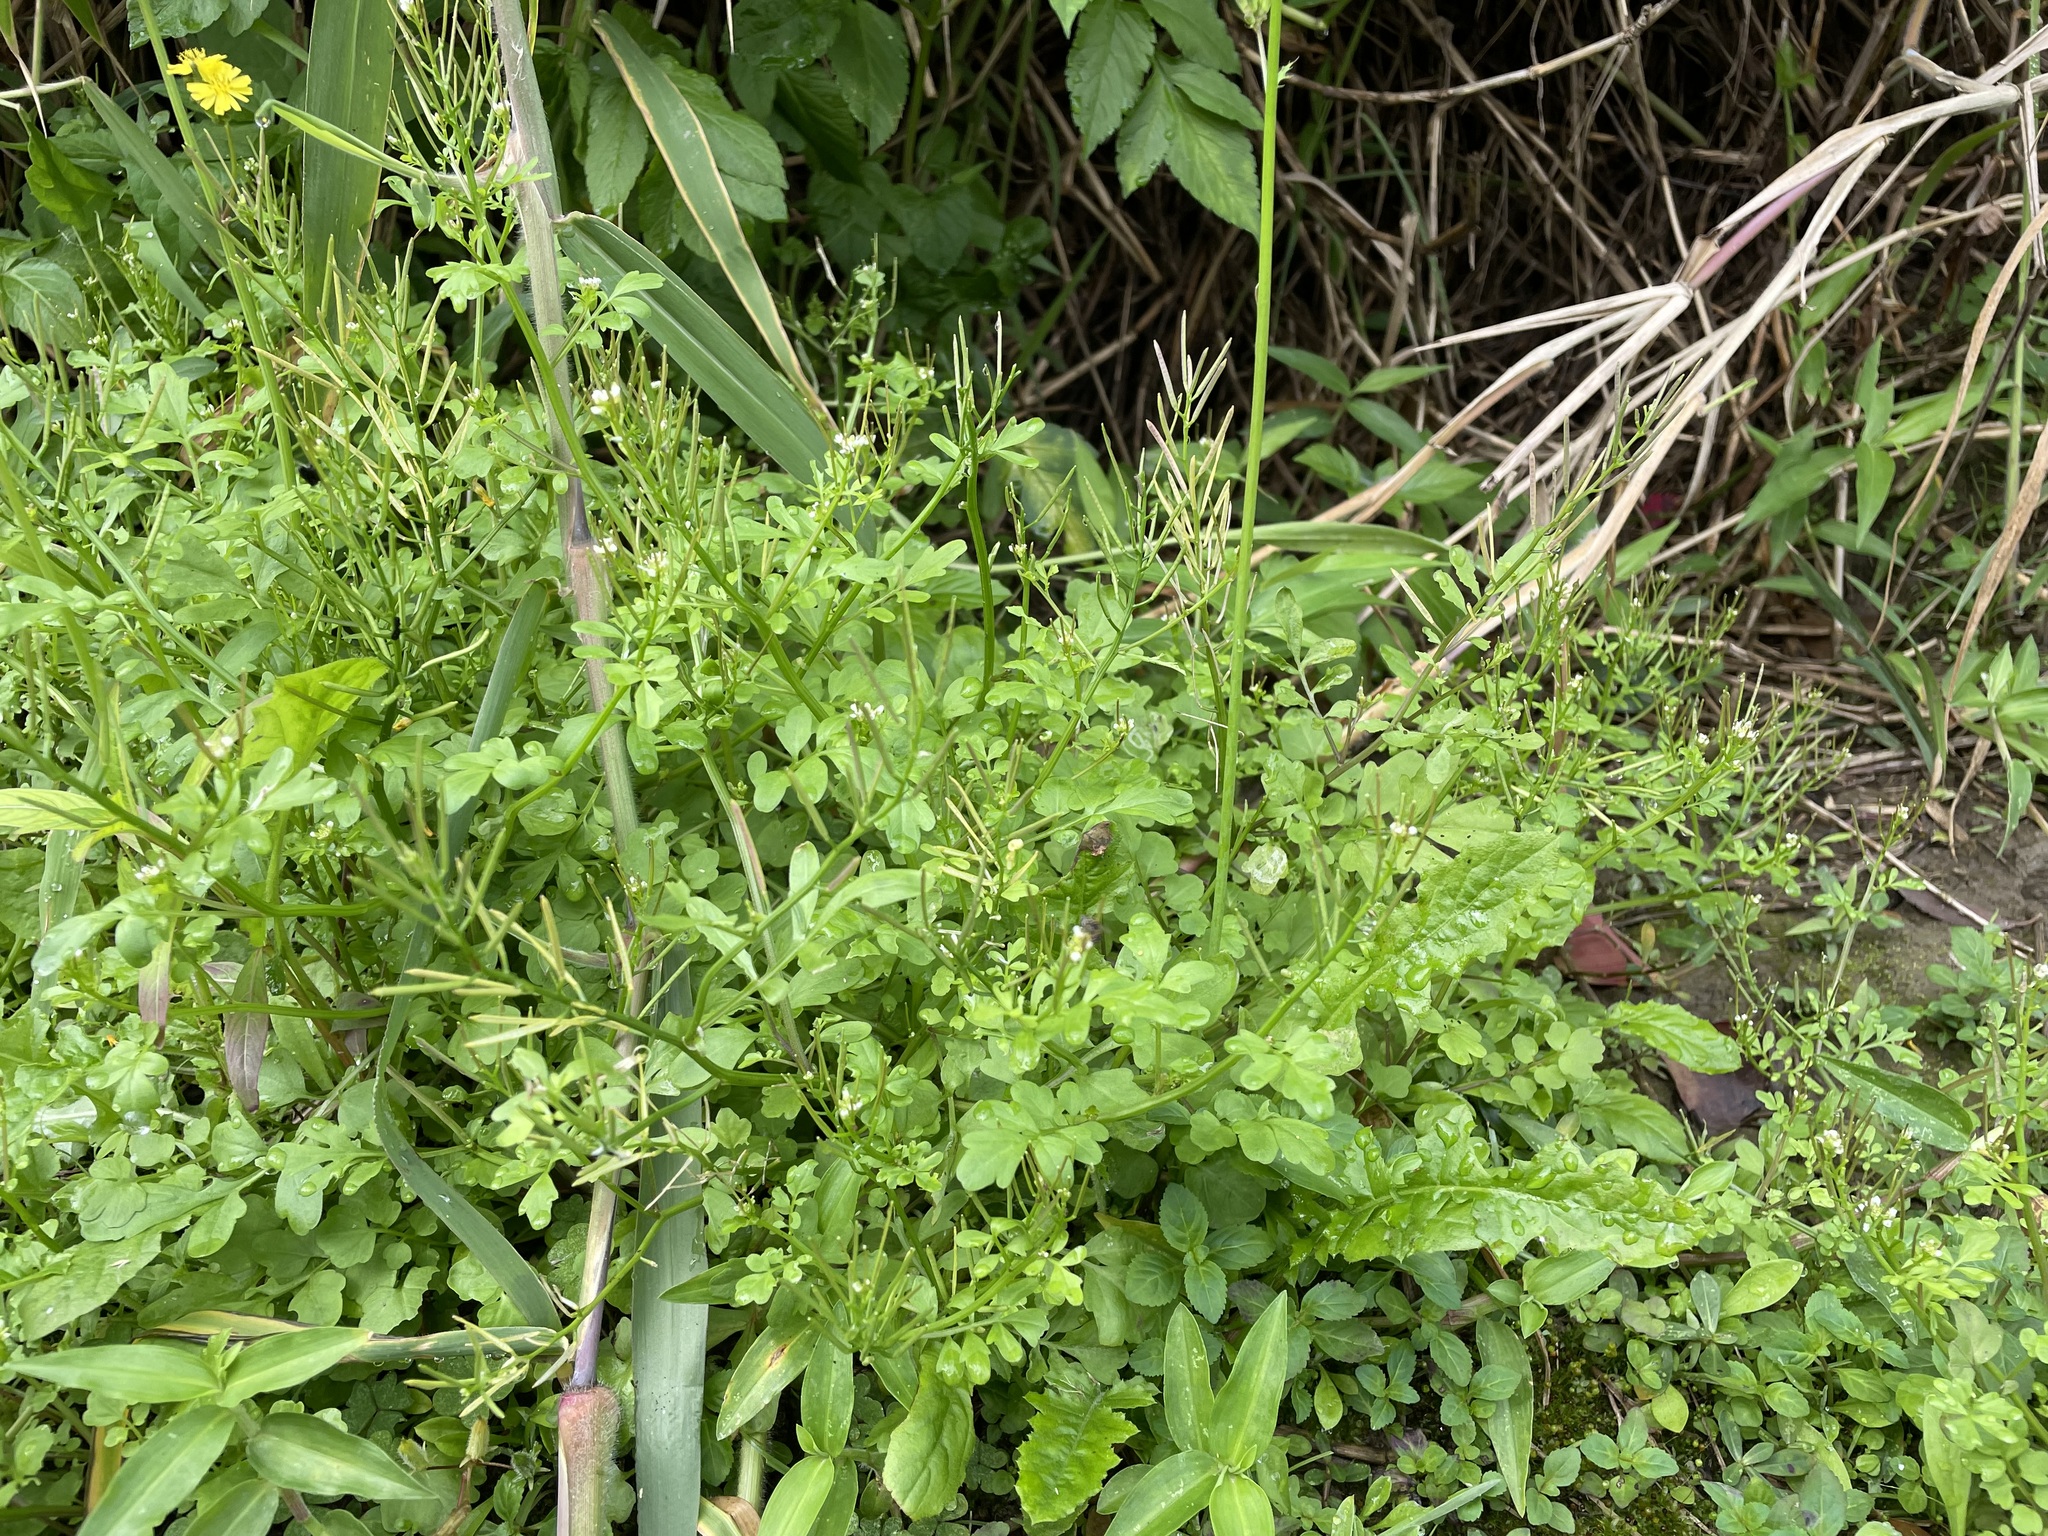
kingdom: Plantae
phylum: Tracheophyta
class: Magnoliopsida
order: Brassicales
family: Brassicaceae
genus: Cardamine
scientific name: Cardamine flexuosa
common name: Woodland bittercress
